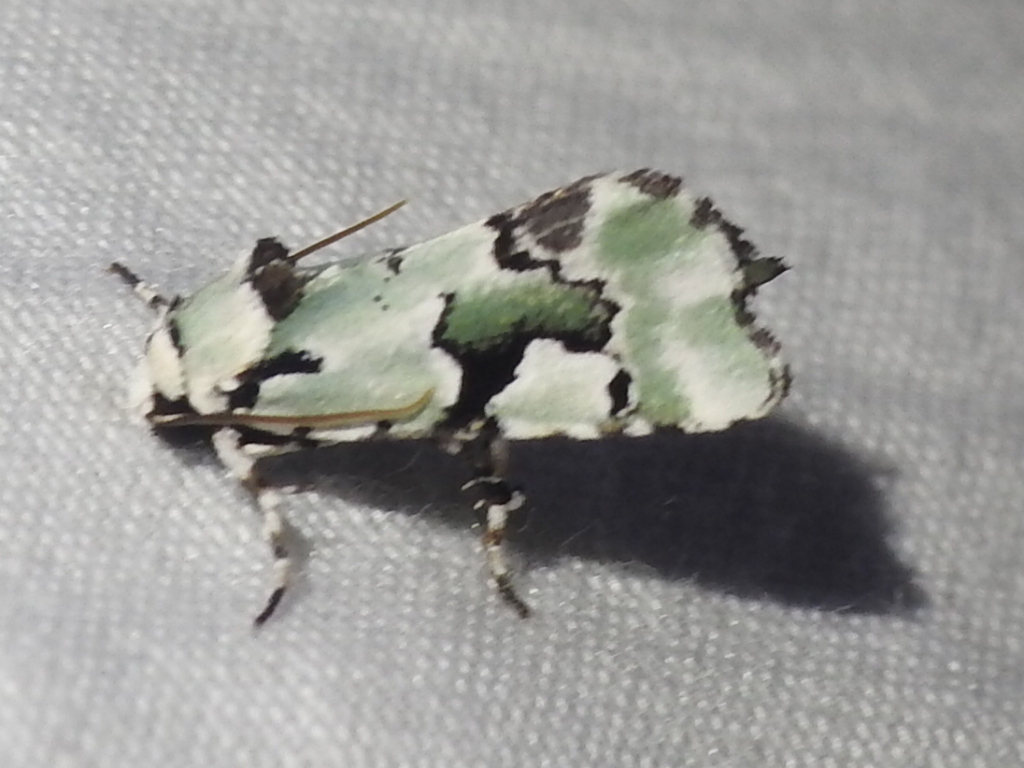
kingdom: Animalia
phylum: Arthropoda
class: Insecta
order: Lepidoptera
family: Noctuidae
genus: Emarginea
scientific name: Emarginea percara
